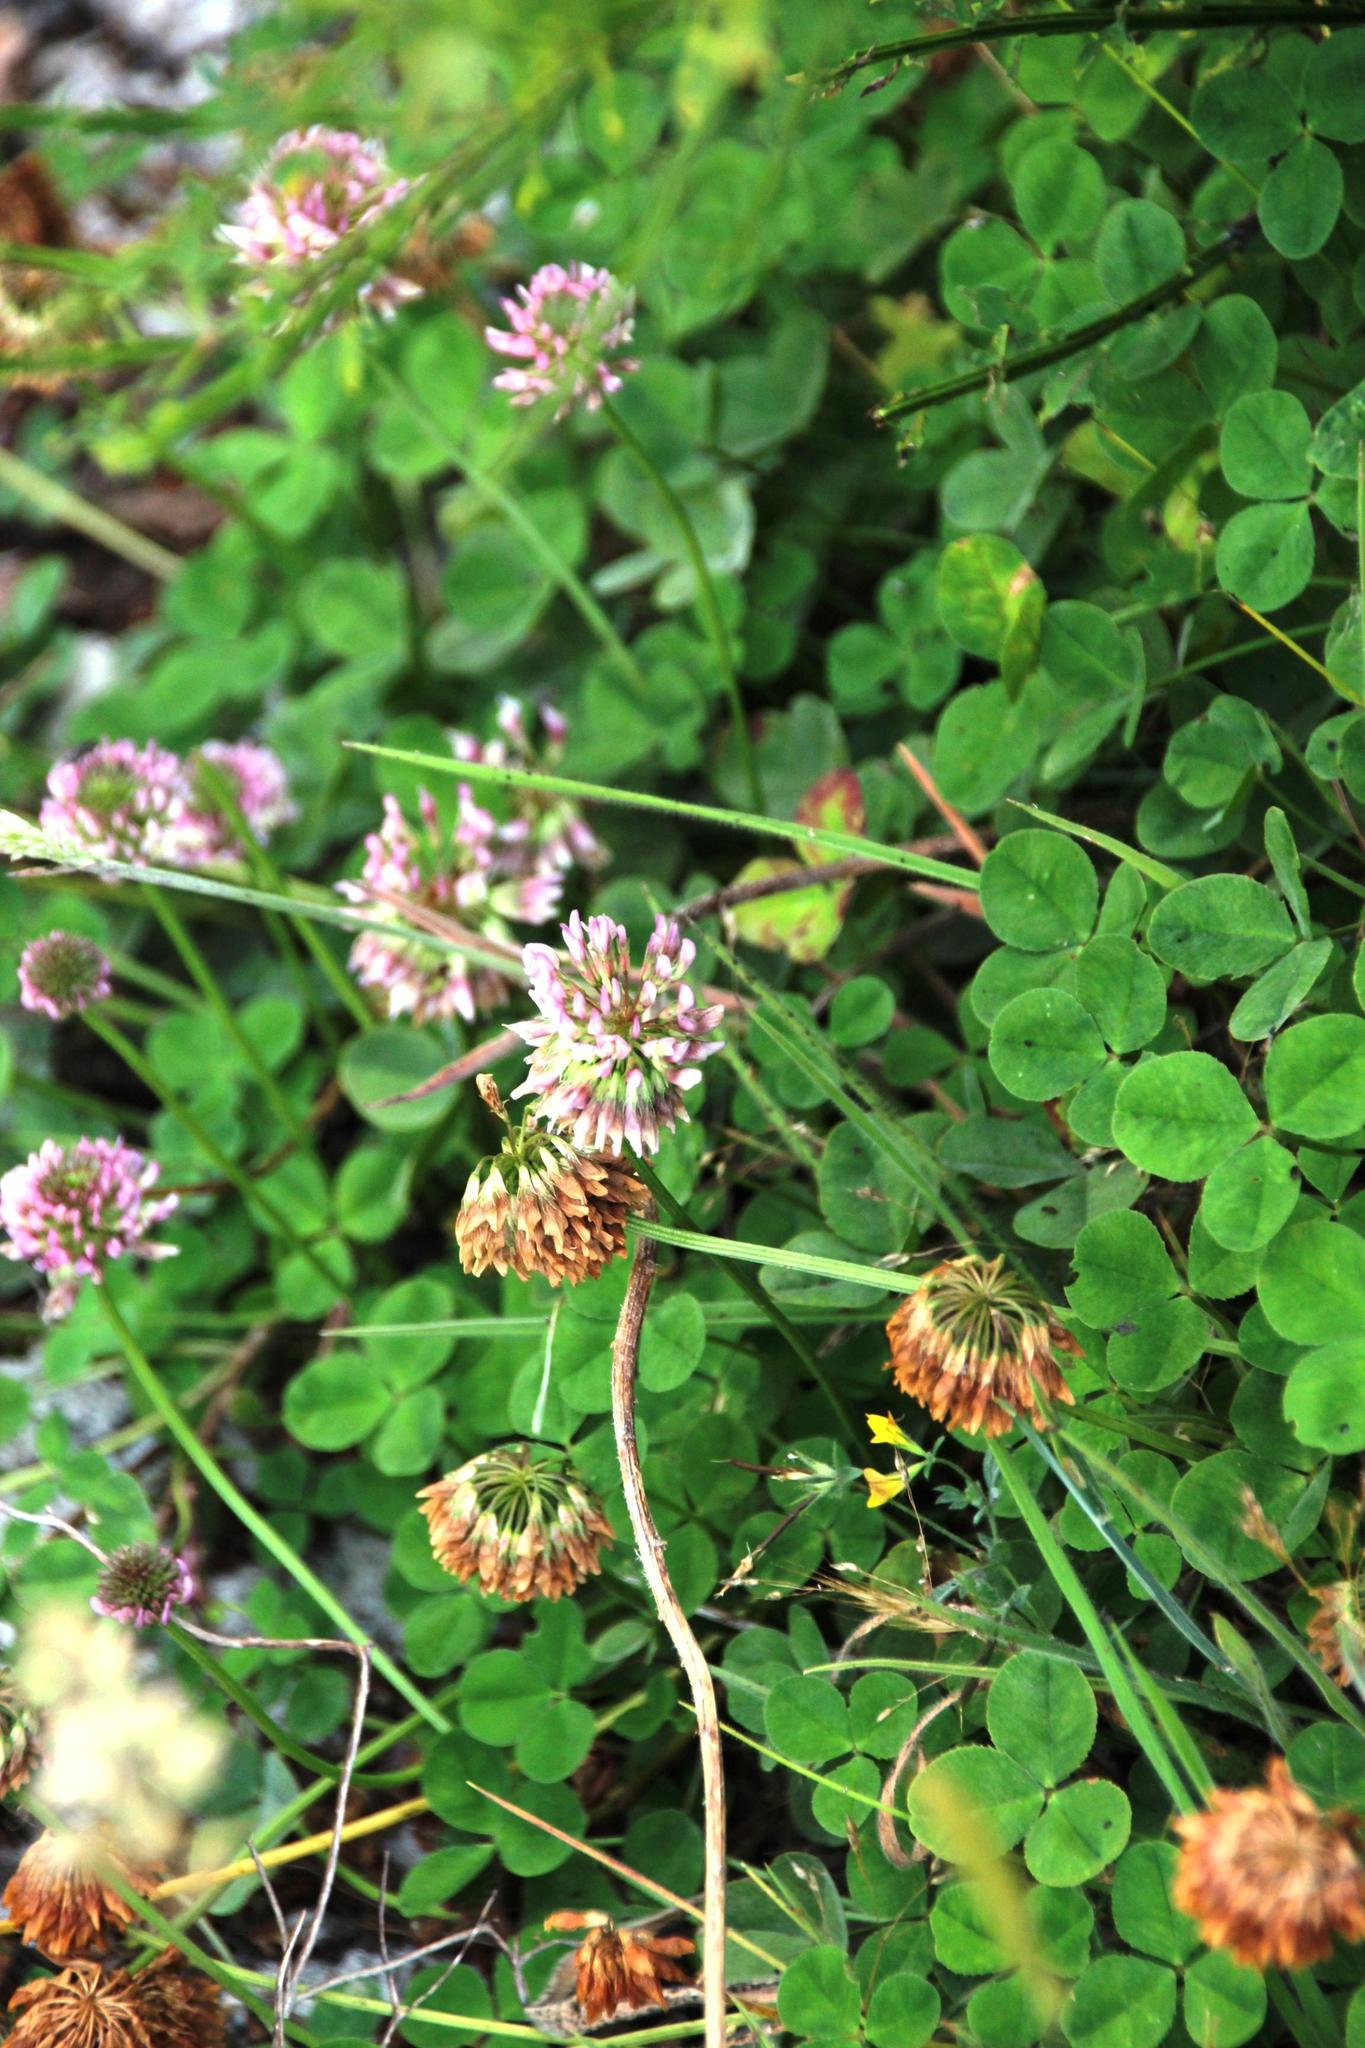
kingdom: Plantae
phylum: Tracheophyta
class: Magnoliopsida
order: Fabales
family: Fabaceae
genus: Trifolium
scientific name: Trifolium repens
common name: White clover
